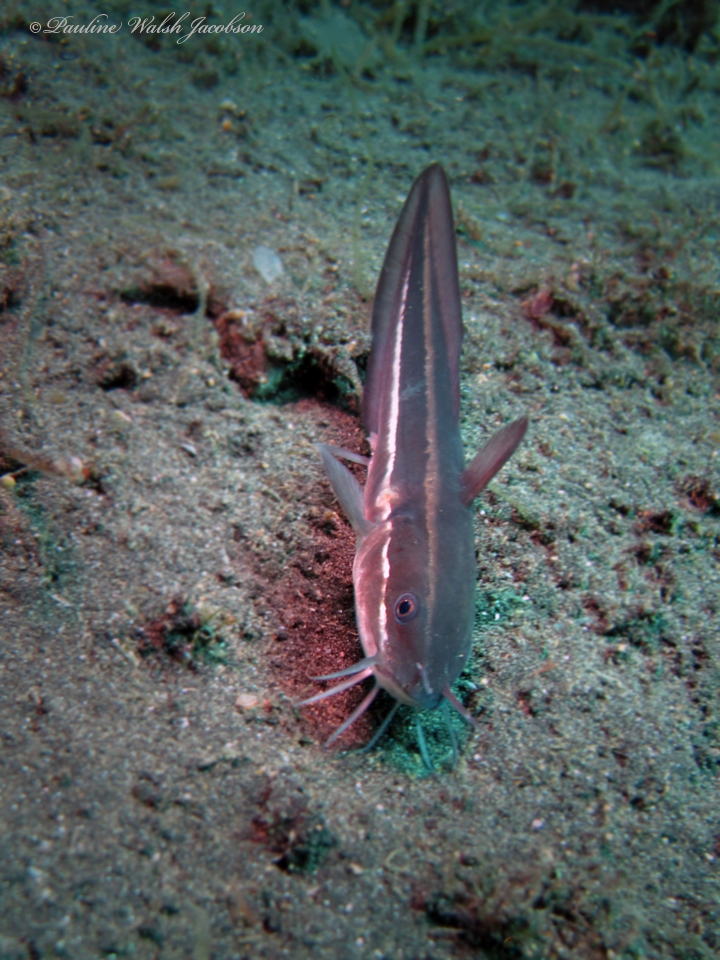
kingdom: Animalia
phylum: Chordata
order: Siluriformes
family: Plotosidae
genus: Plotosus
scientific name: Plotosus lineatus
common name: Striped eel catfish
